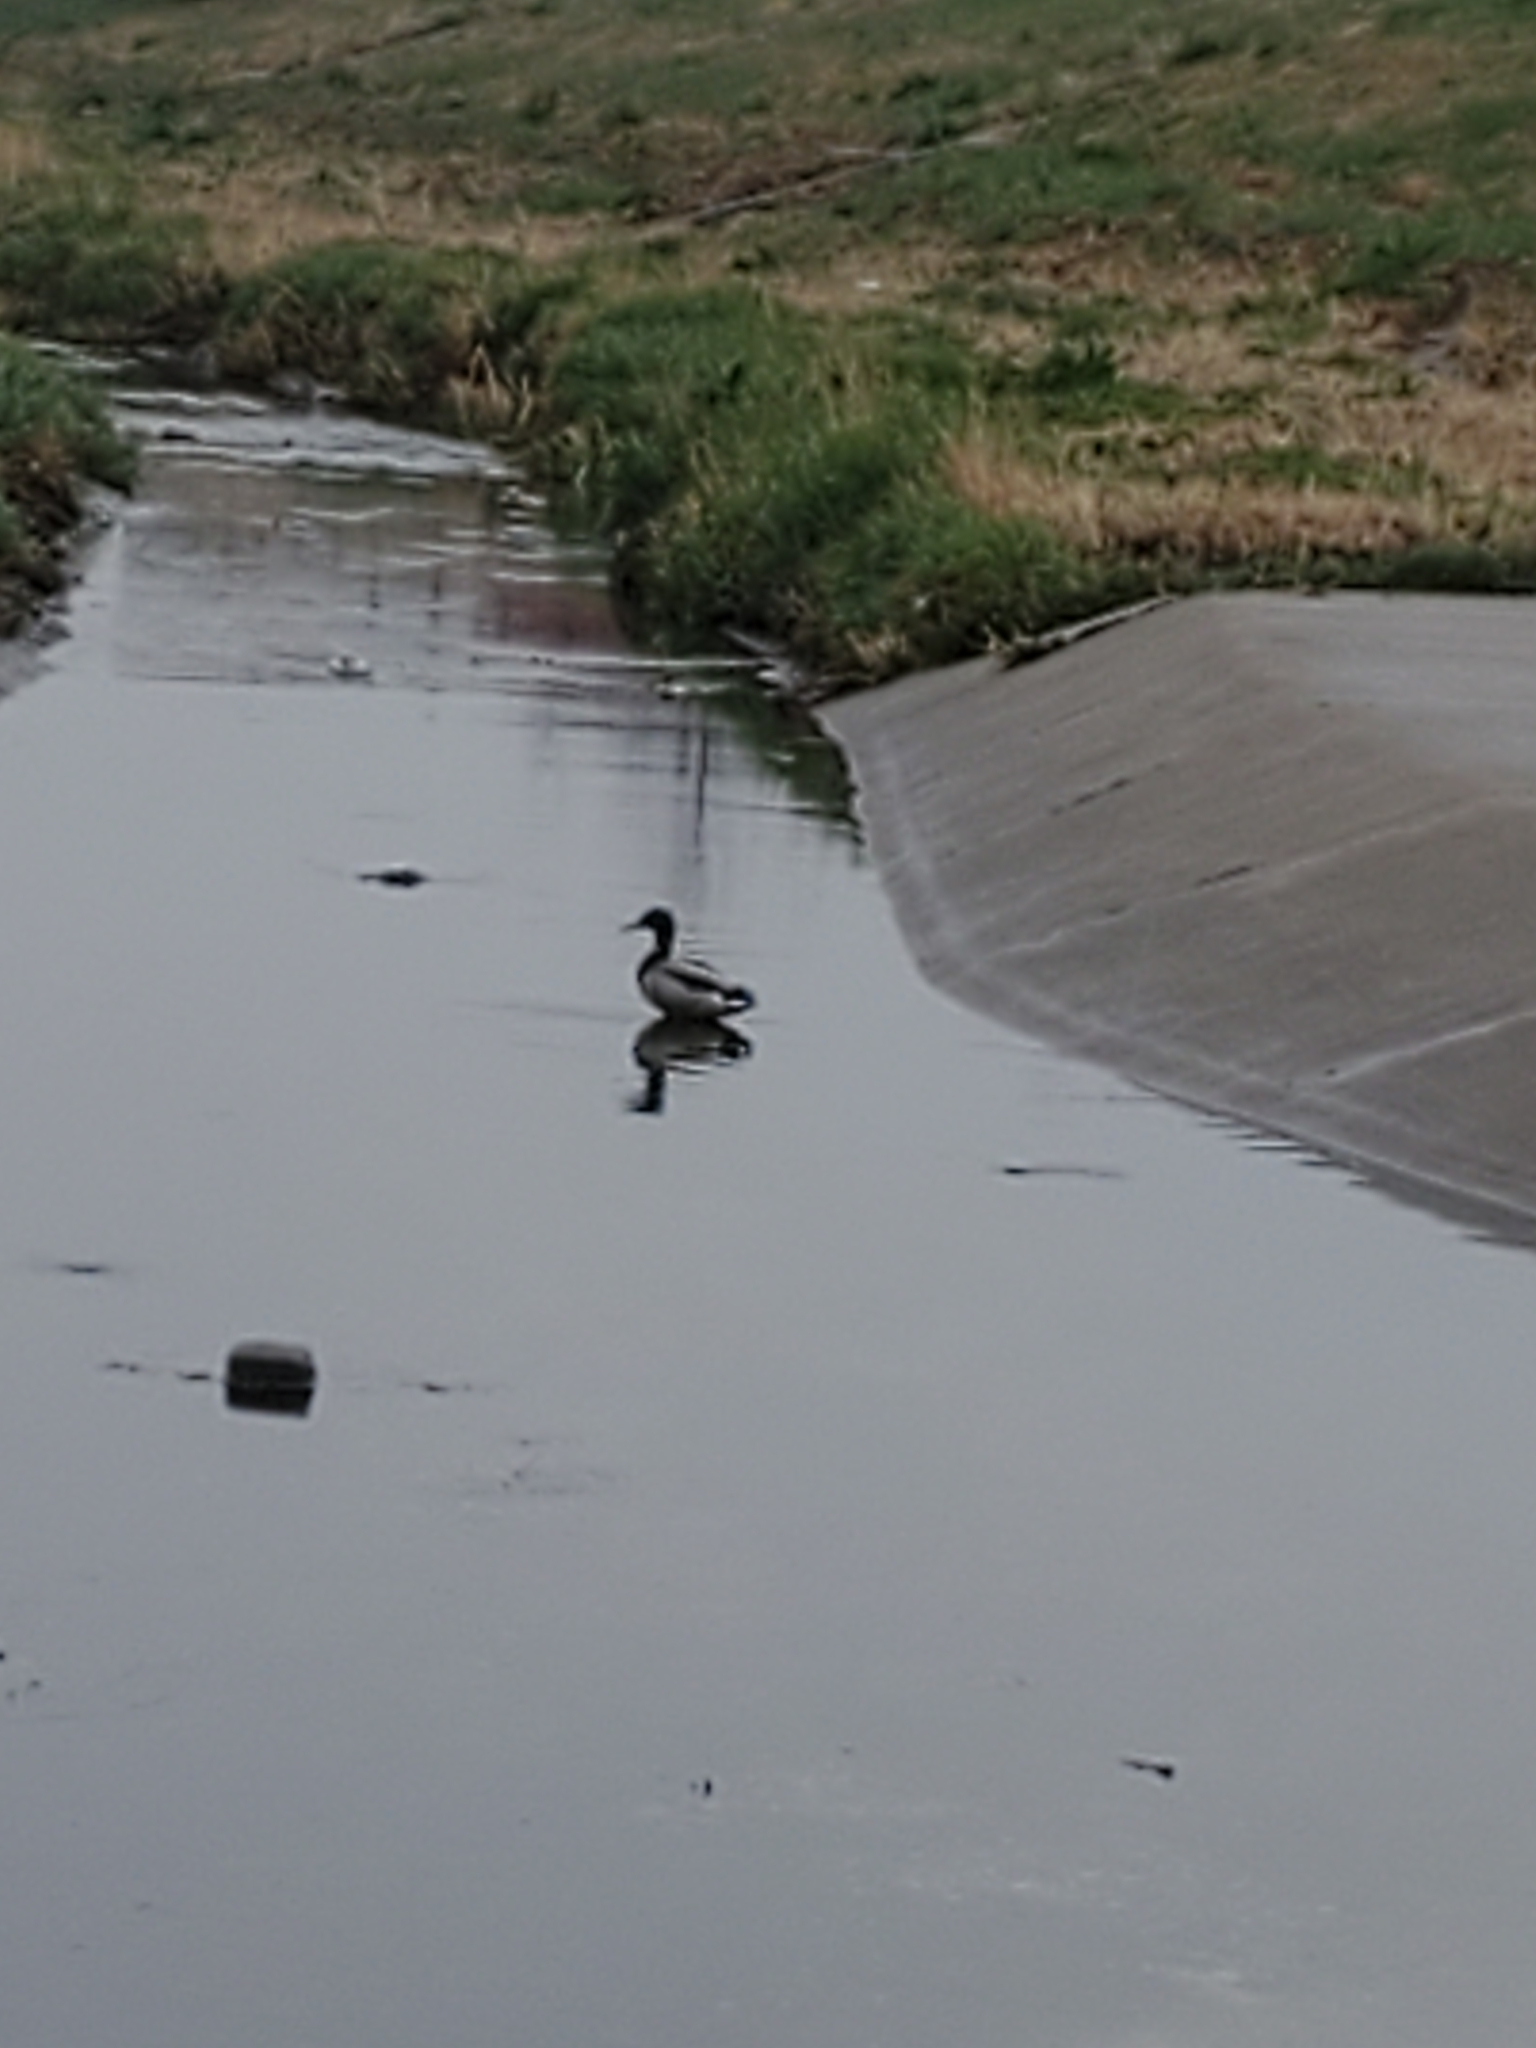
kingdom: Animalia
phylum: Chordata
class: Aves
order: Anseriformes
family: Anatidae
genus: Anas
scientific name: Anas platyrhynchos
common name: Mallard
